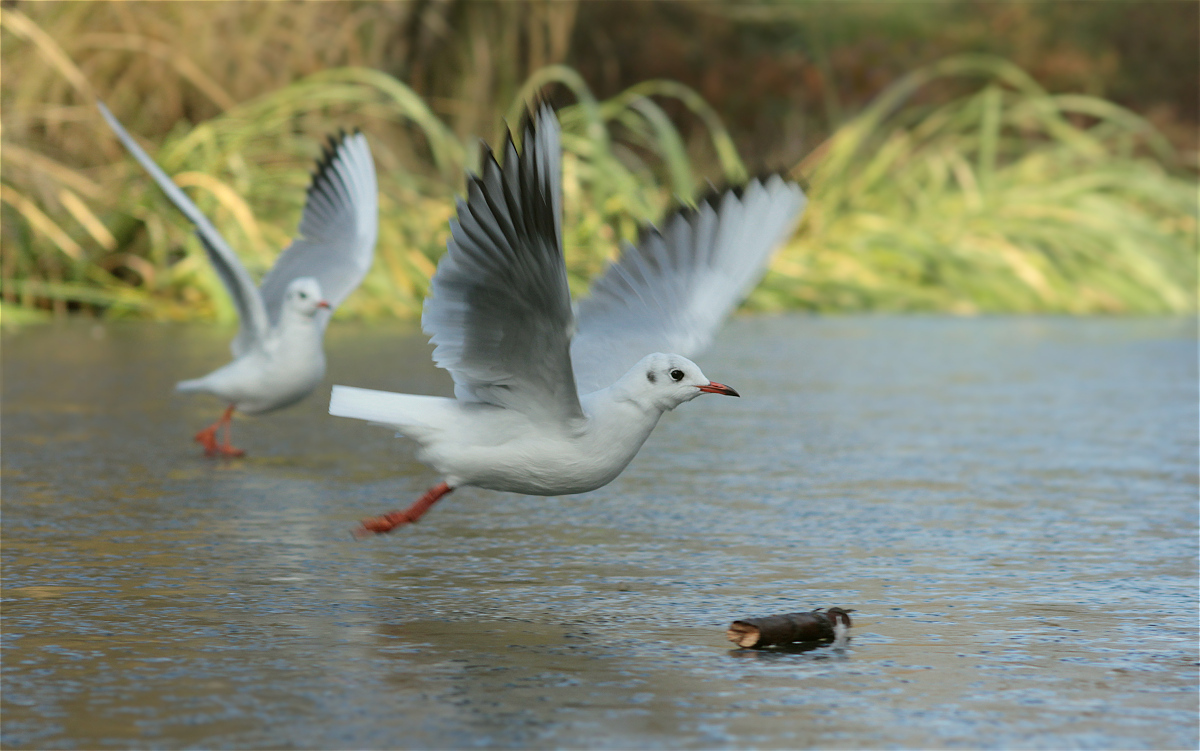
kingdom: Animalia
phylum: Chordata
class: Aves
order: Charadriiformes
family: Laridae
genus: Chroicocephalus
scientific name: Chroicocephalus ridibundus
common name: Black-headed gull
